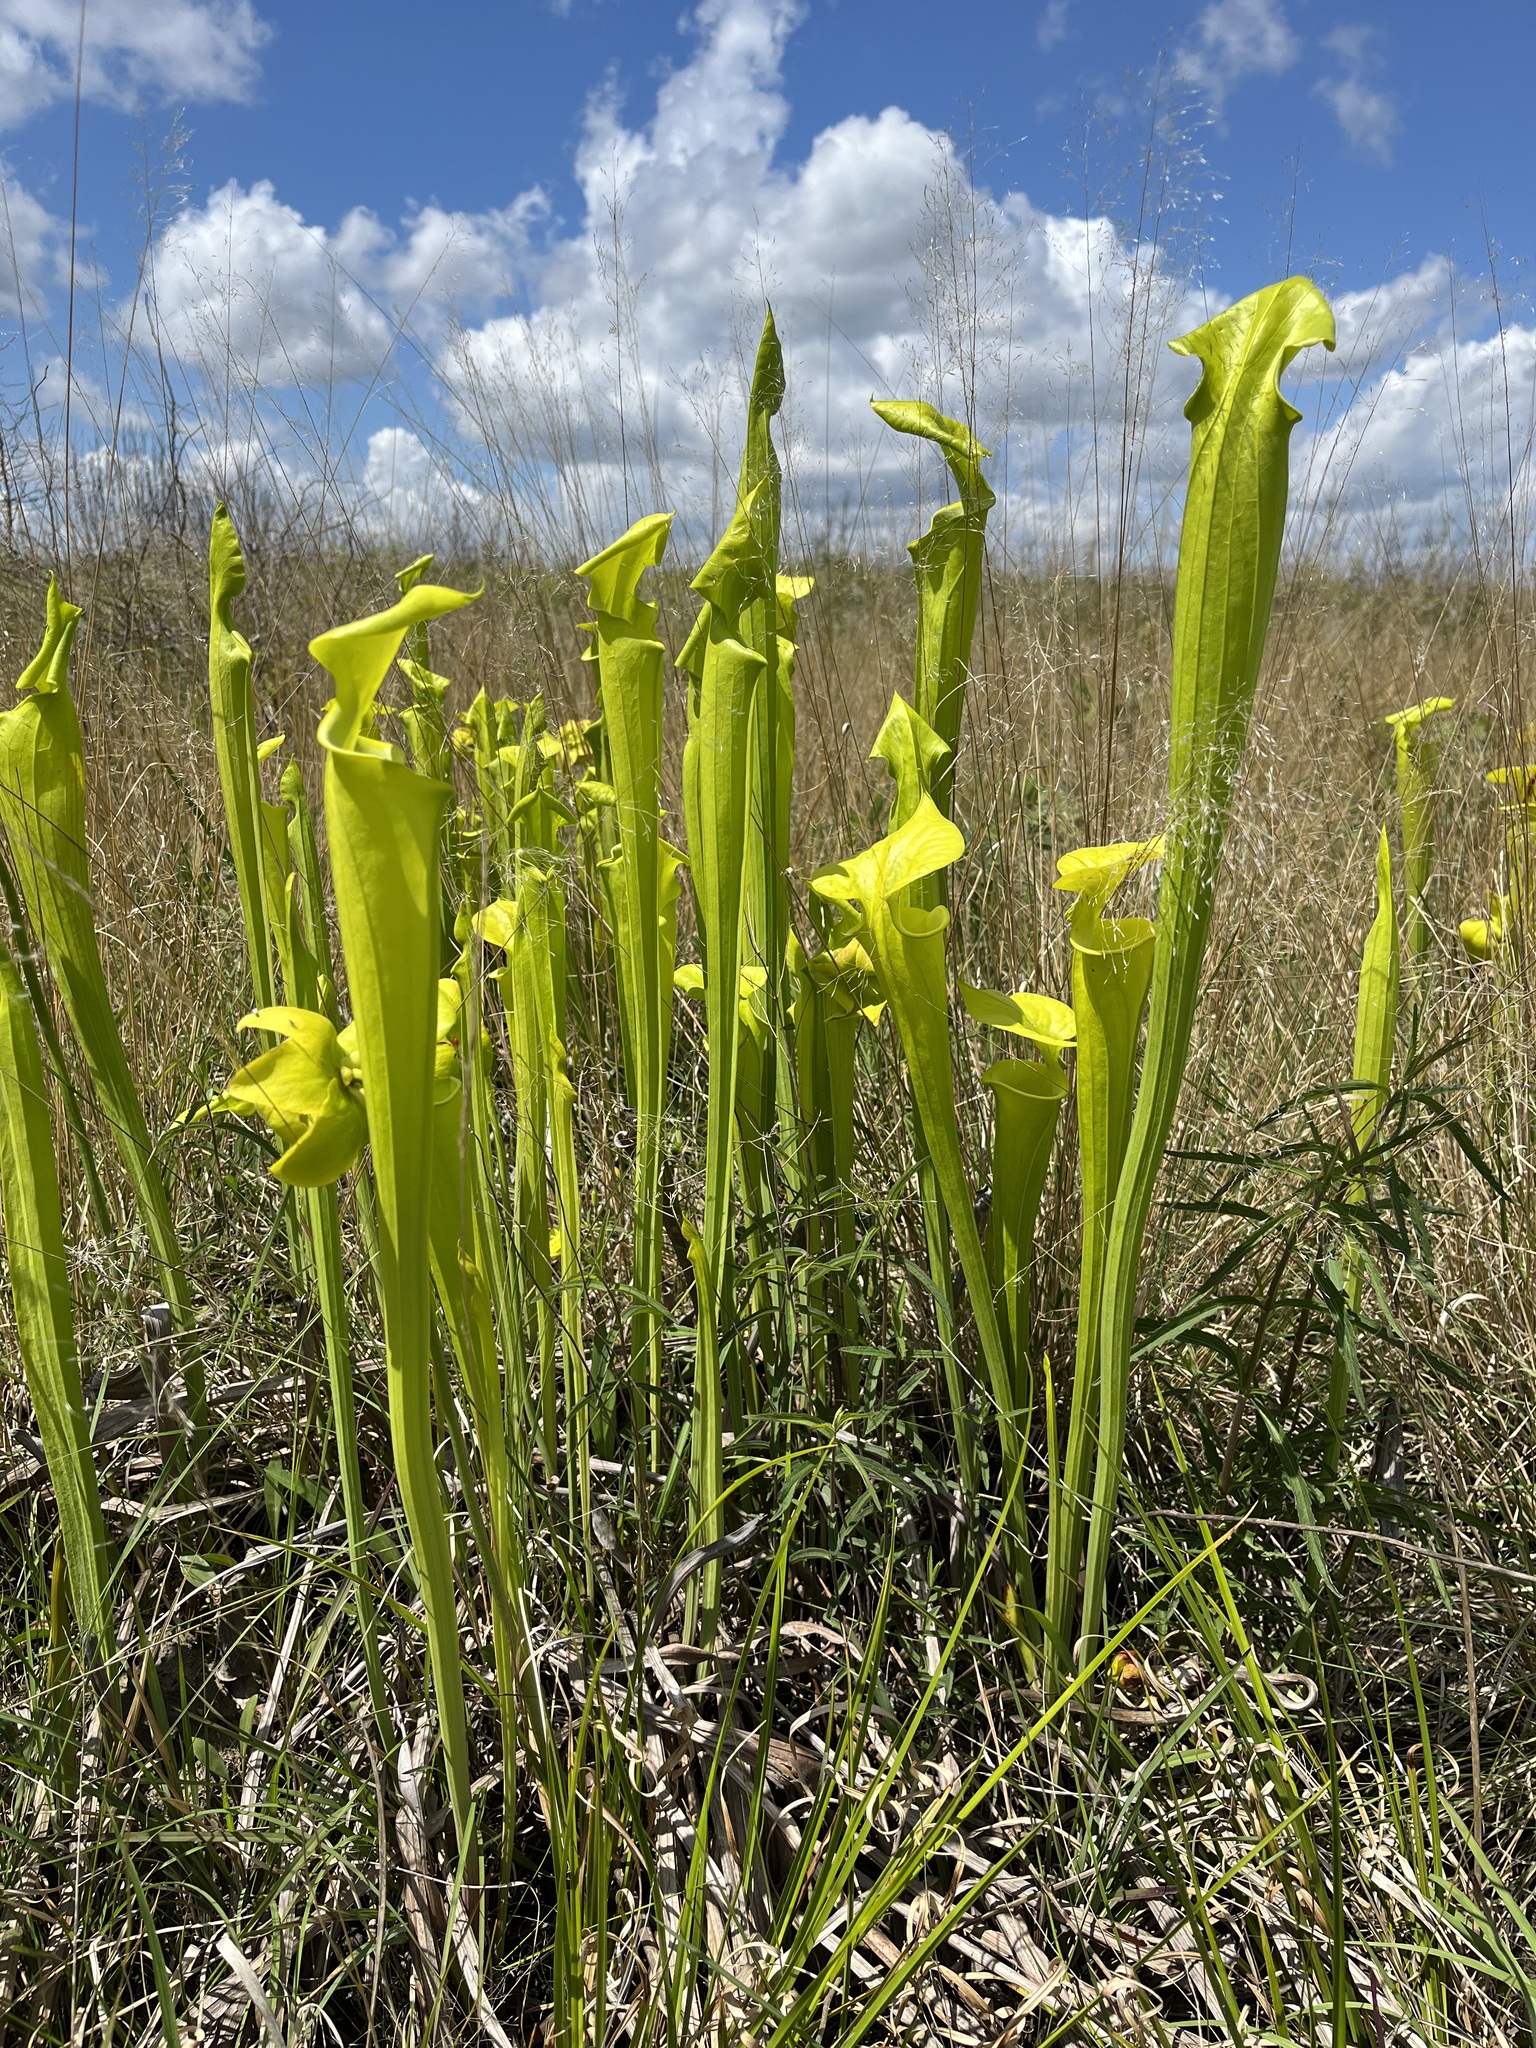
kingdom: Plantae
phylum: Tracheophyta
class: Magnoliopsida
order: Ericales
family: Sarraceniaceae
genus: Sarracenia
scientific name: Sarracenia flava
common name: Trumpets
